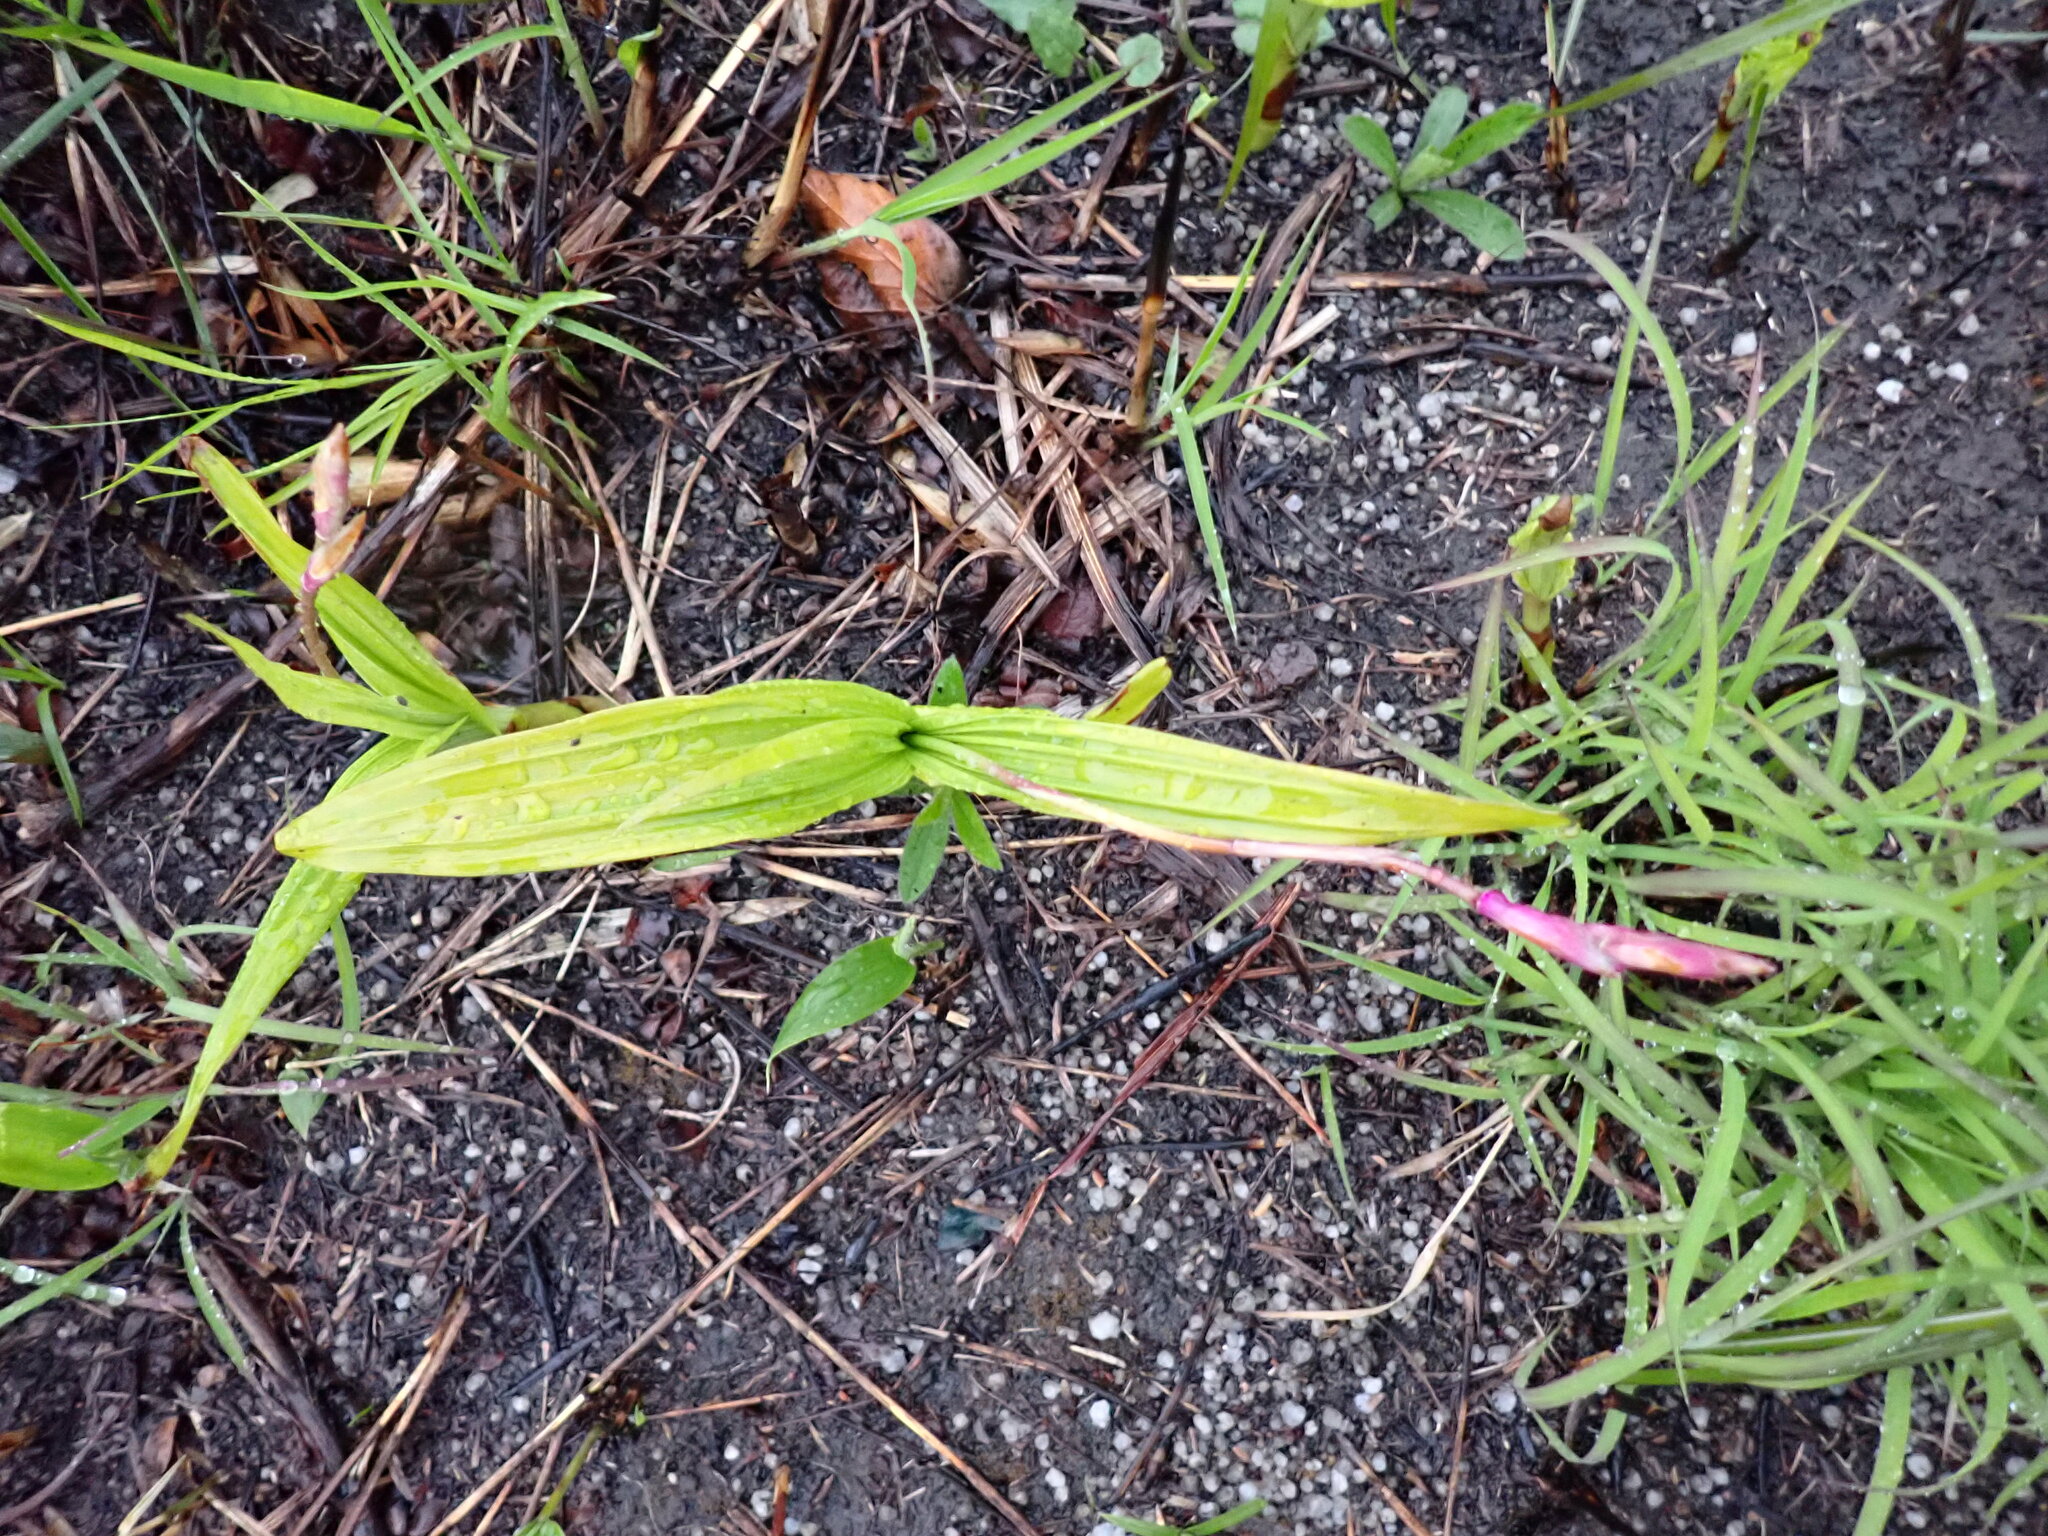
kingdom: Plantae
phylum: Tracheophyta
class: Liliopsida
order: Asparagales
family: Orchidaceae
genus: Bletilla
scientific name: Bletilla striata
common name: Hyacinth orchid
